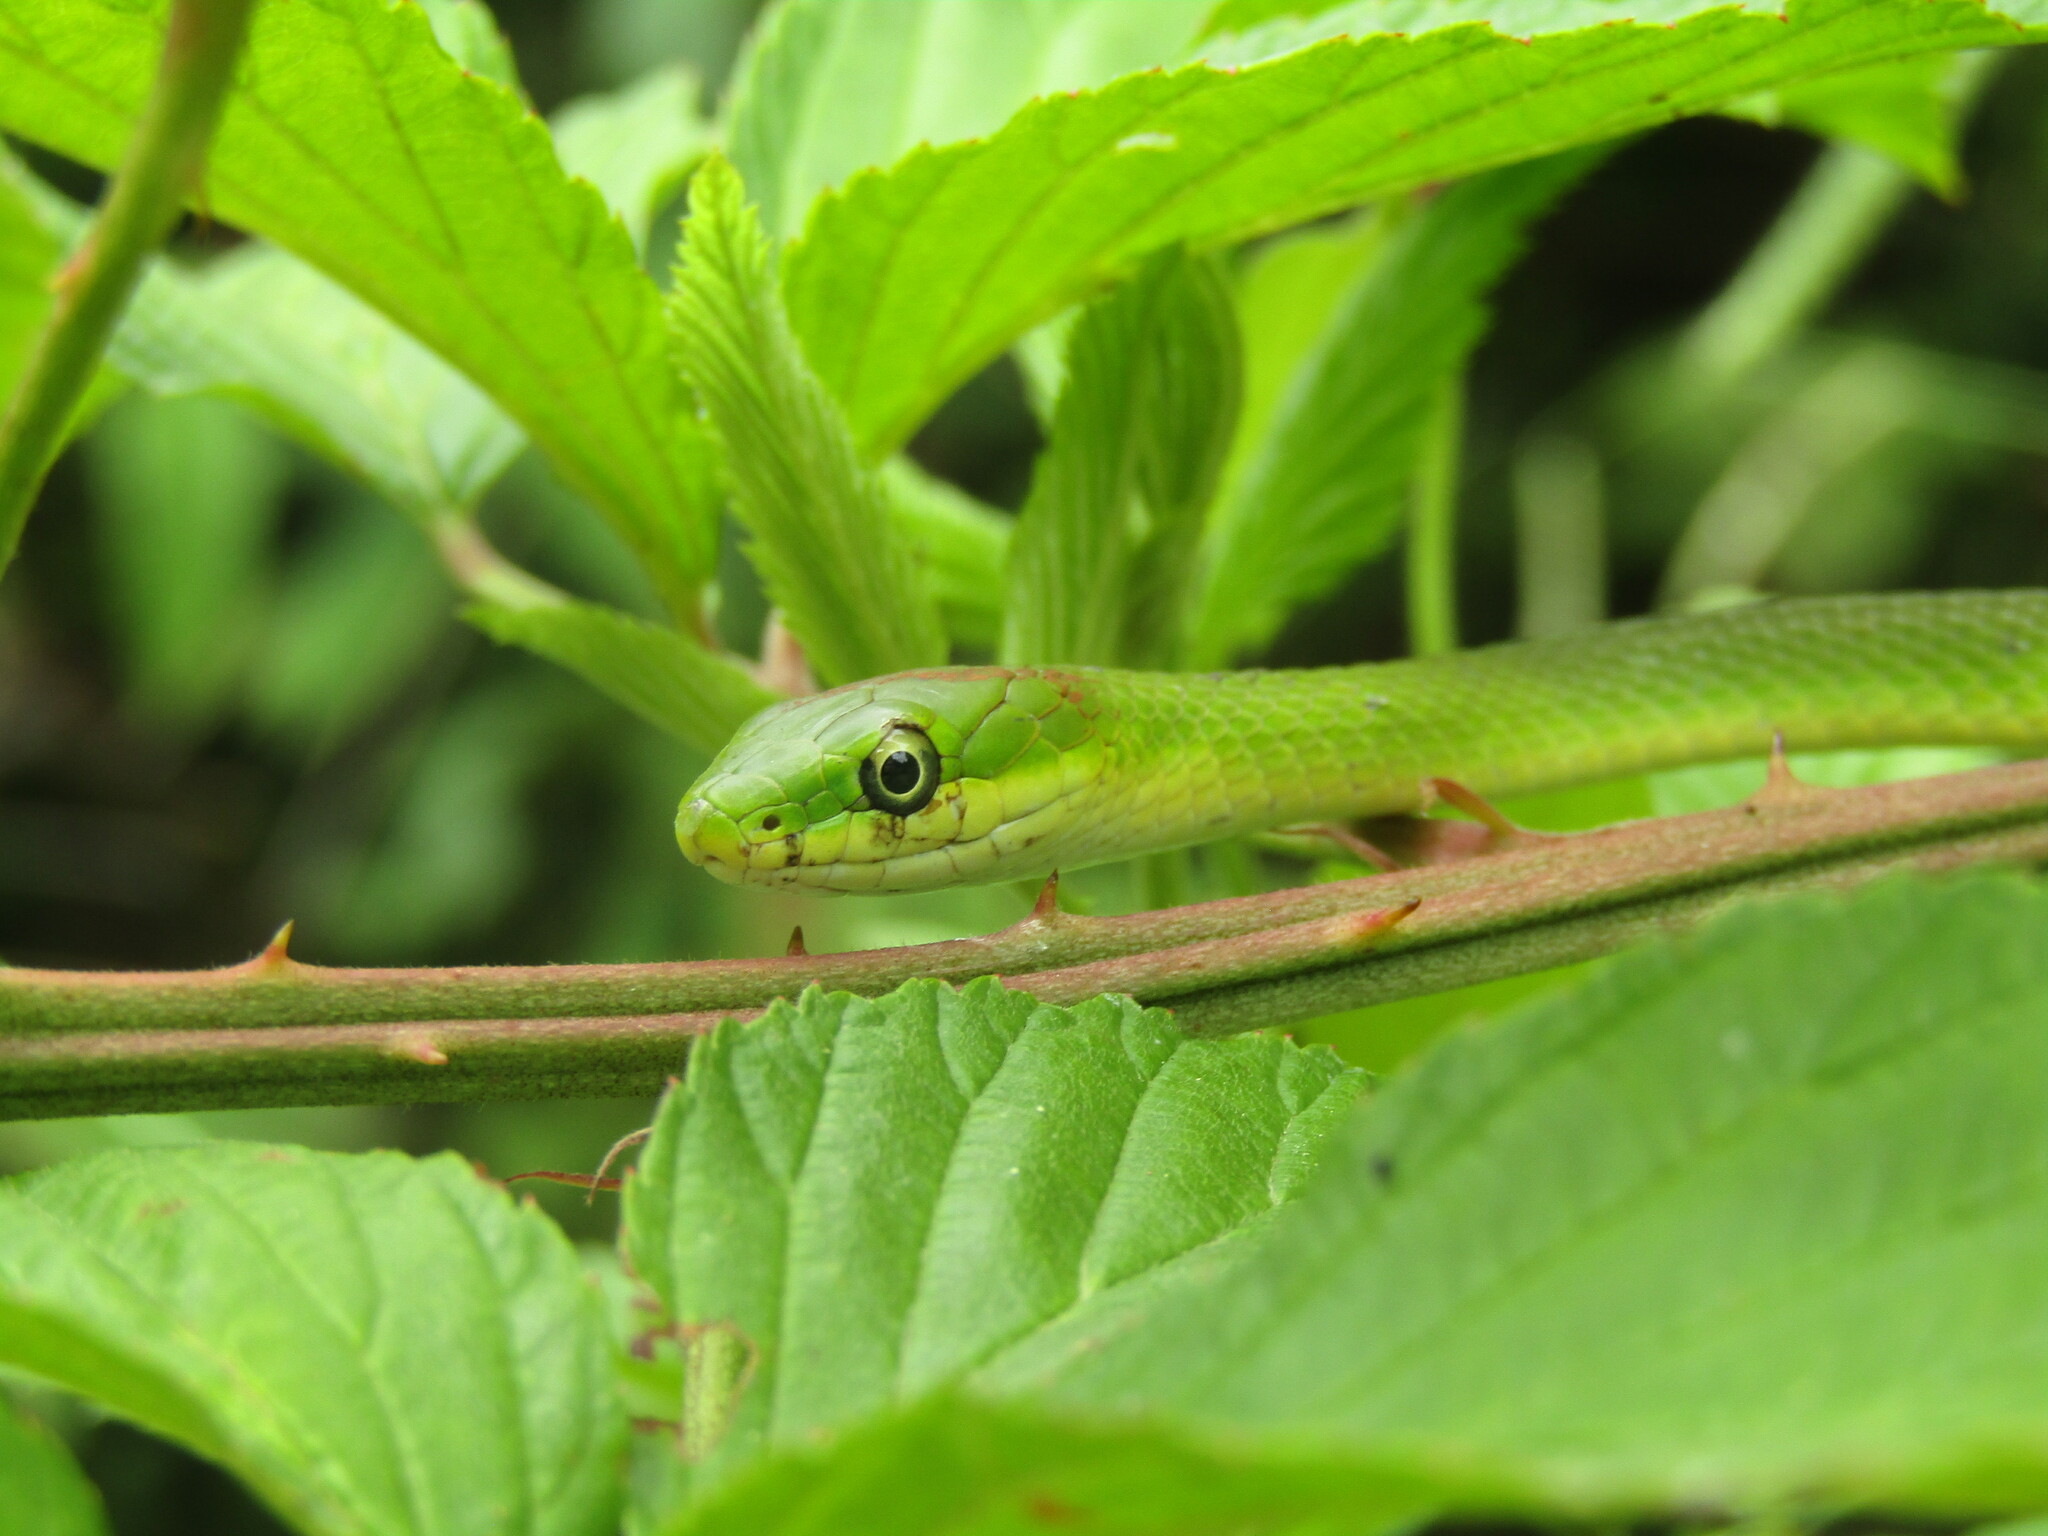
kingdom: Animalia
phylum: Chordata
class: Squamata
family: Colubridae
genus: Opheodrys
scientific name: Opheodrys aestivus
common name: Rough greensnake
